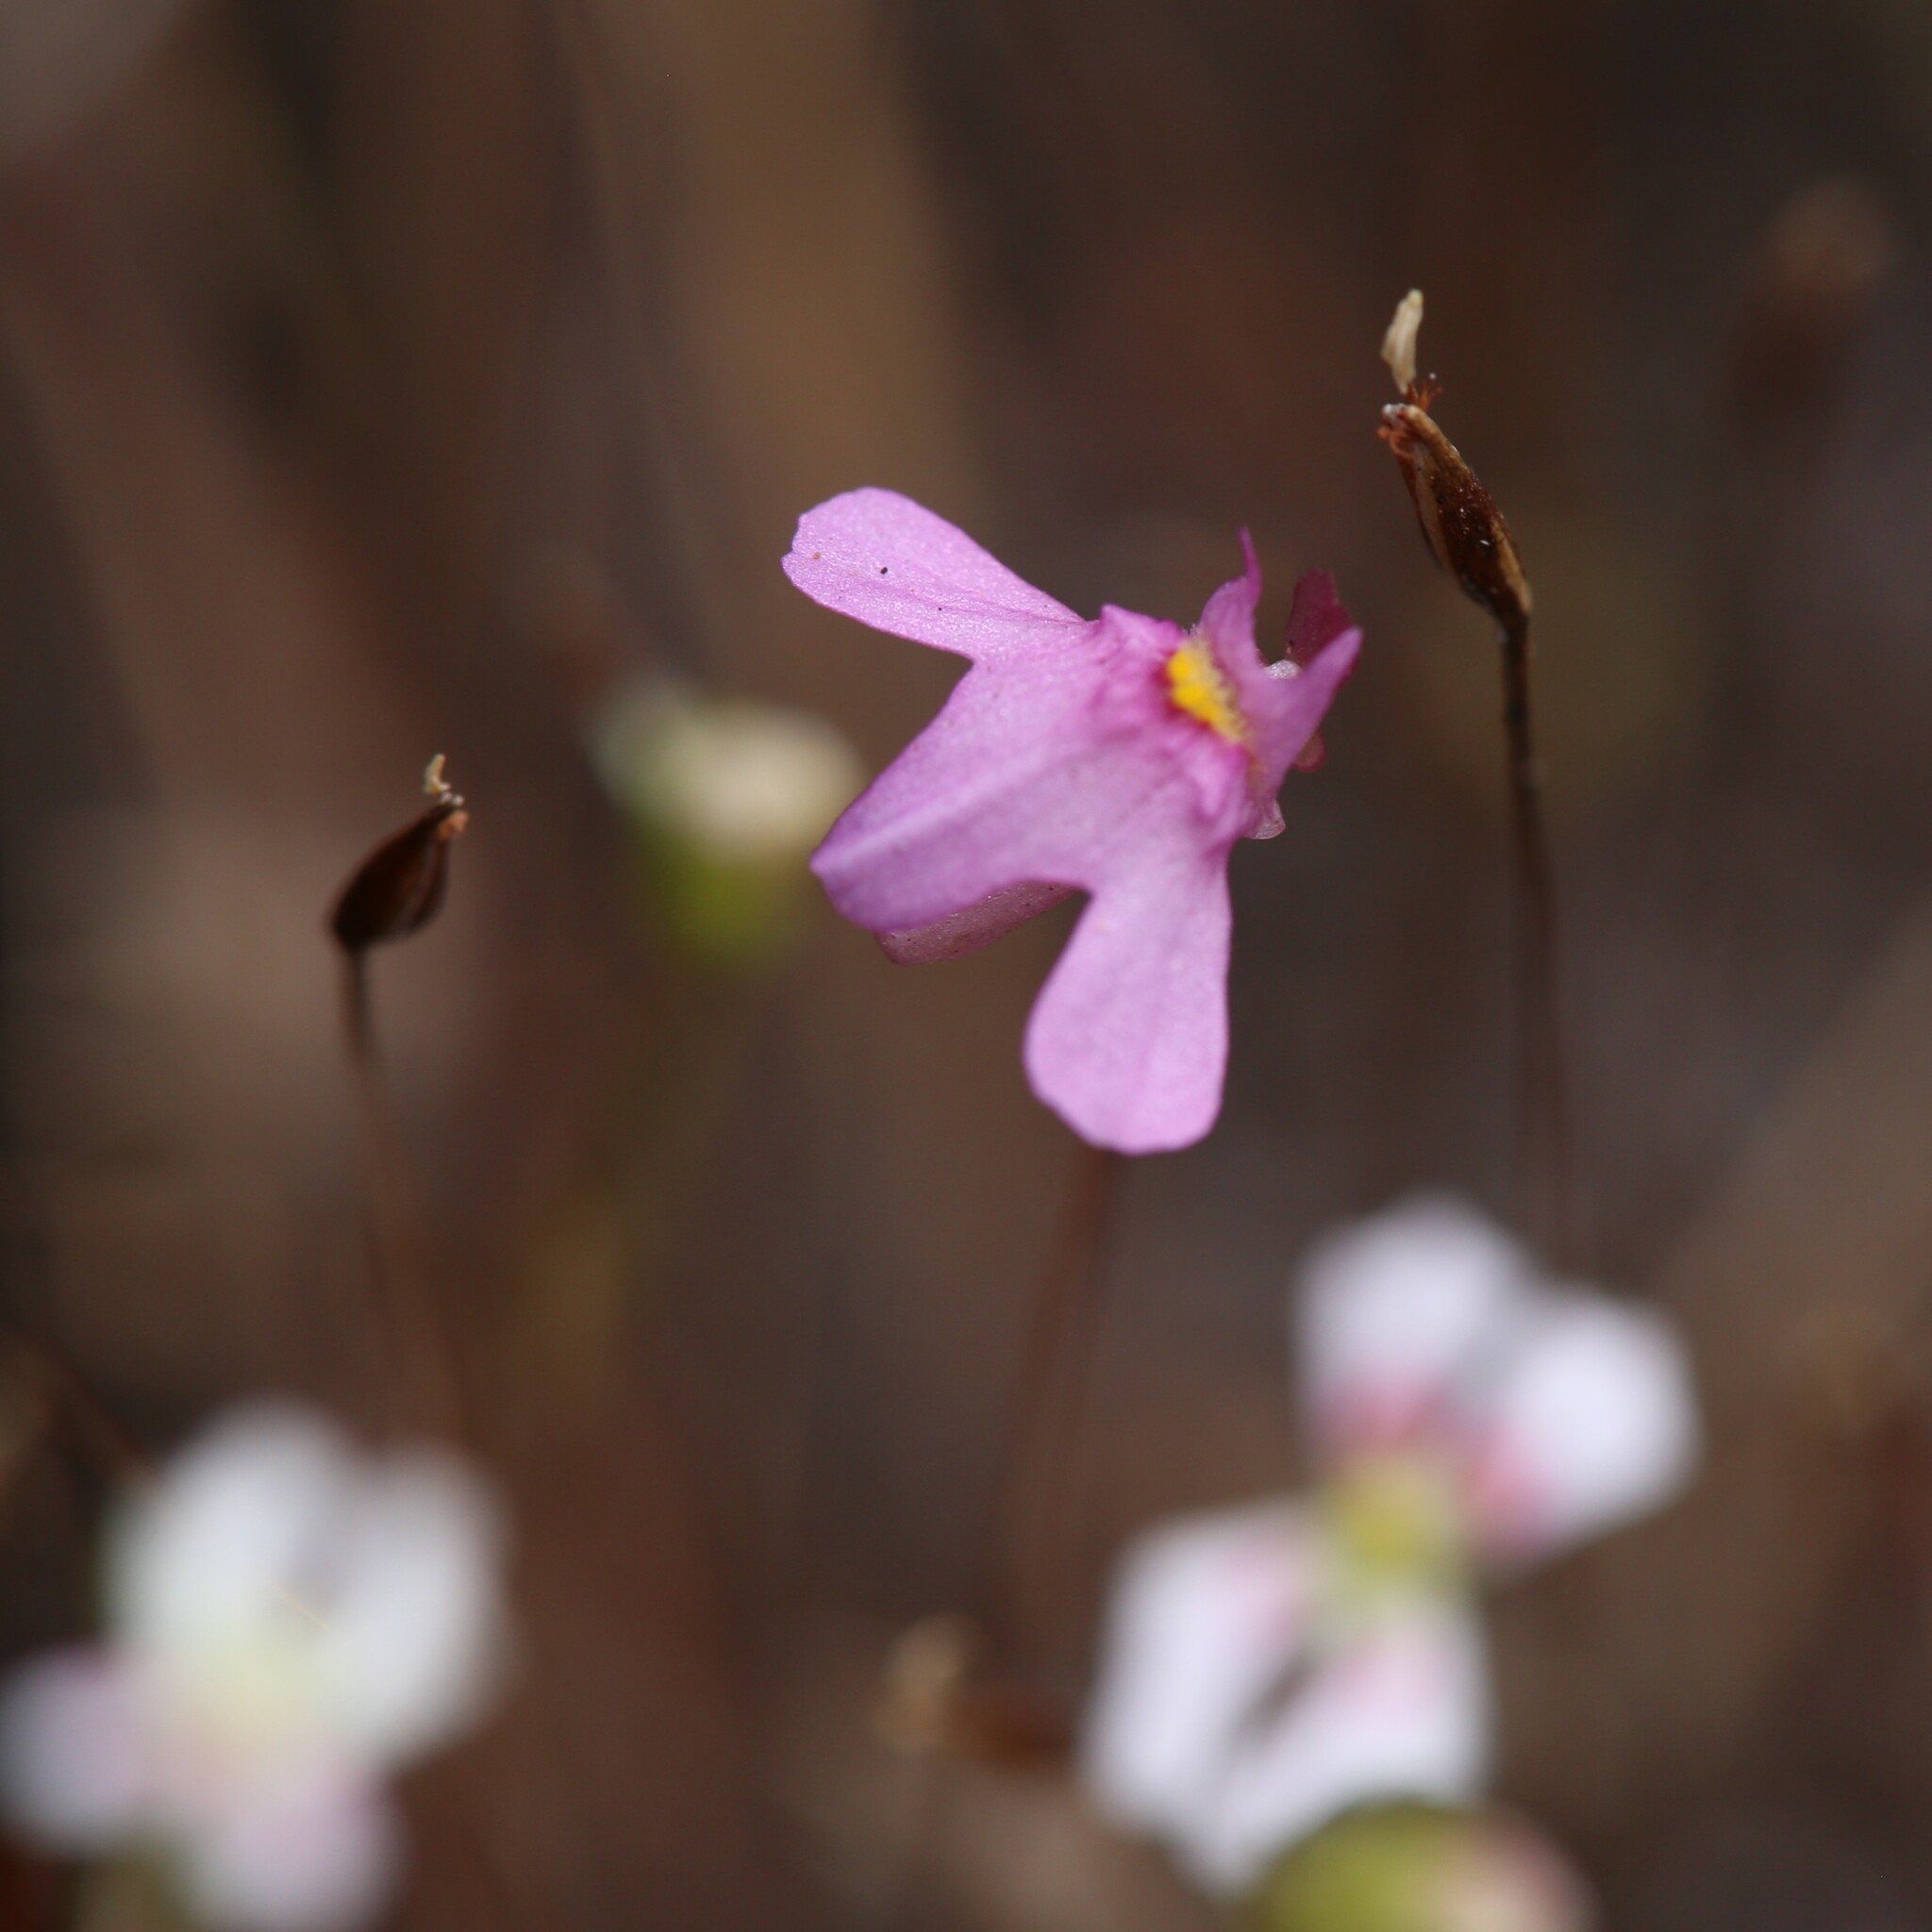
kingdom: Plantae
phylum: Tracheophyta
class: Magnoliopsida
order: Lamiales
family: Lentibulariaceae
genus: Utricularia
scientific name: Utricularia multifida
